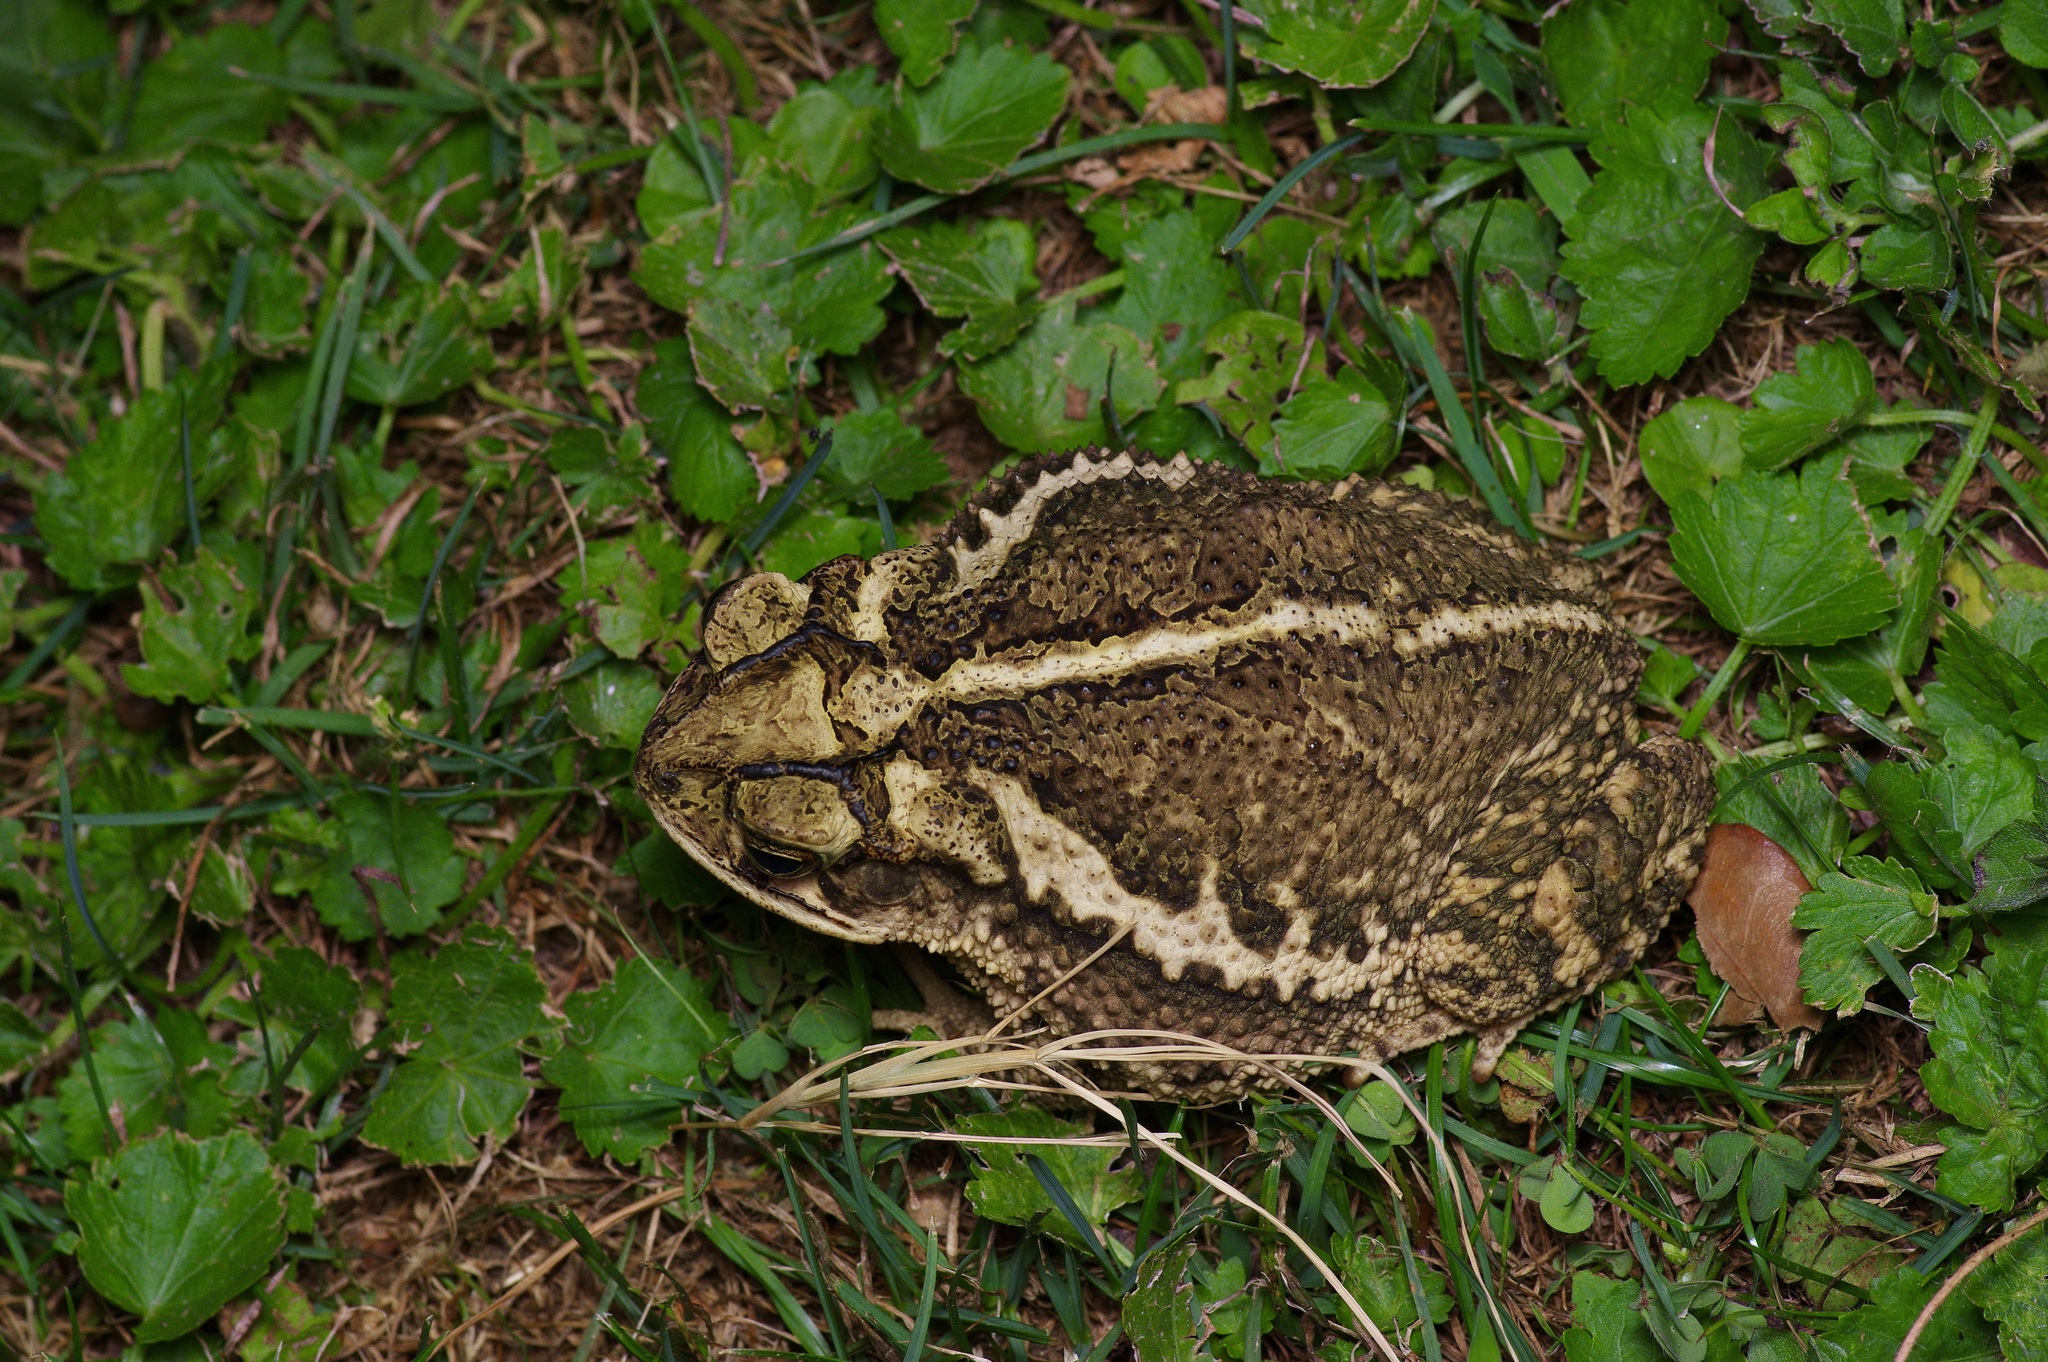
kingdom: Animalia
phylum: Chordata
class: Amphibia
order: Anura
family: Bufonidae
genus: Incilius
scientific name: Incilius nebulifer
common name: Gulf coast toad
